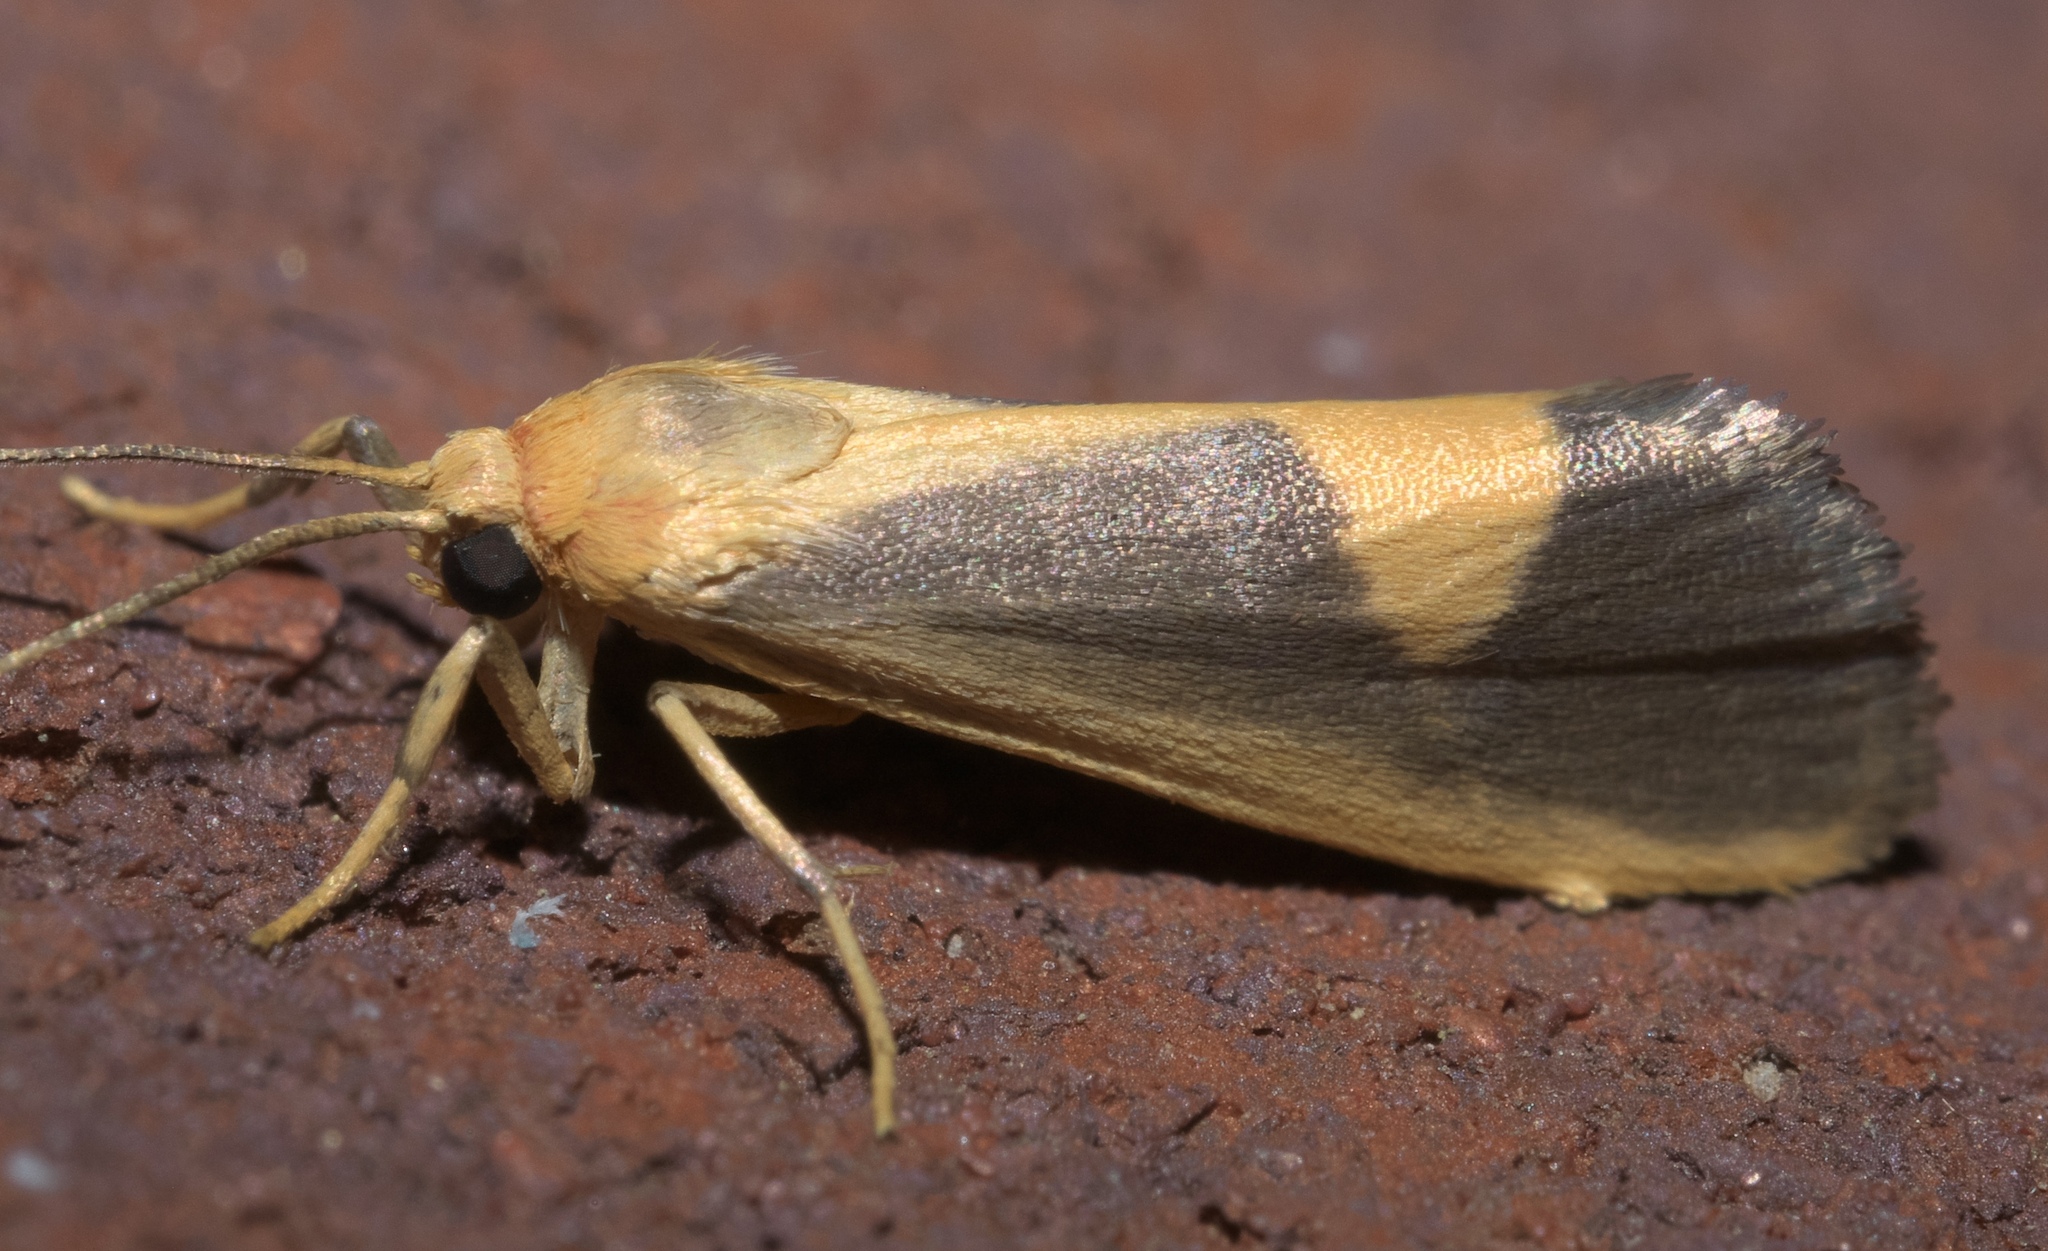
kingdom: Animalia
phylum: Arthropoda
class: Insecta
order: Lepidoptera
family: Erebidae
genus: Cisthene
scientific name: Cisthene plumbea
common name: Lead colored lichen moth
